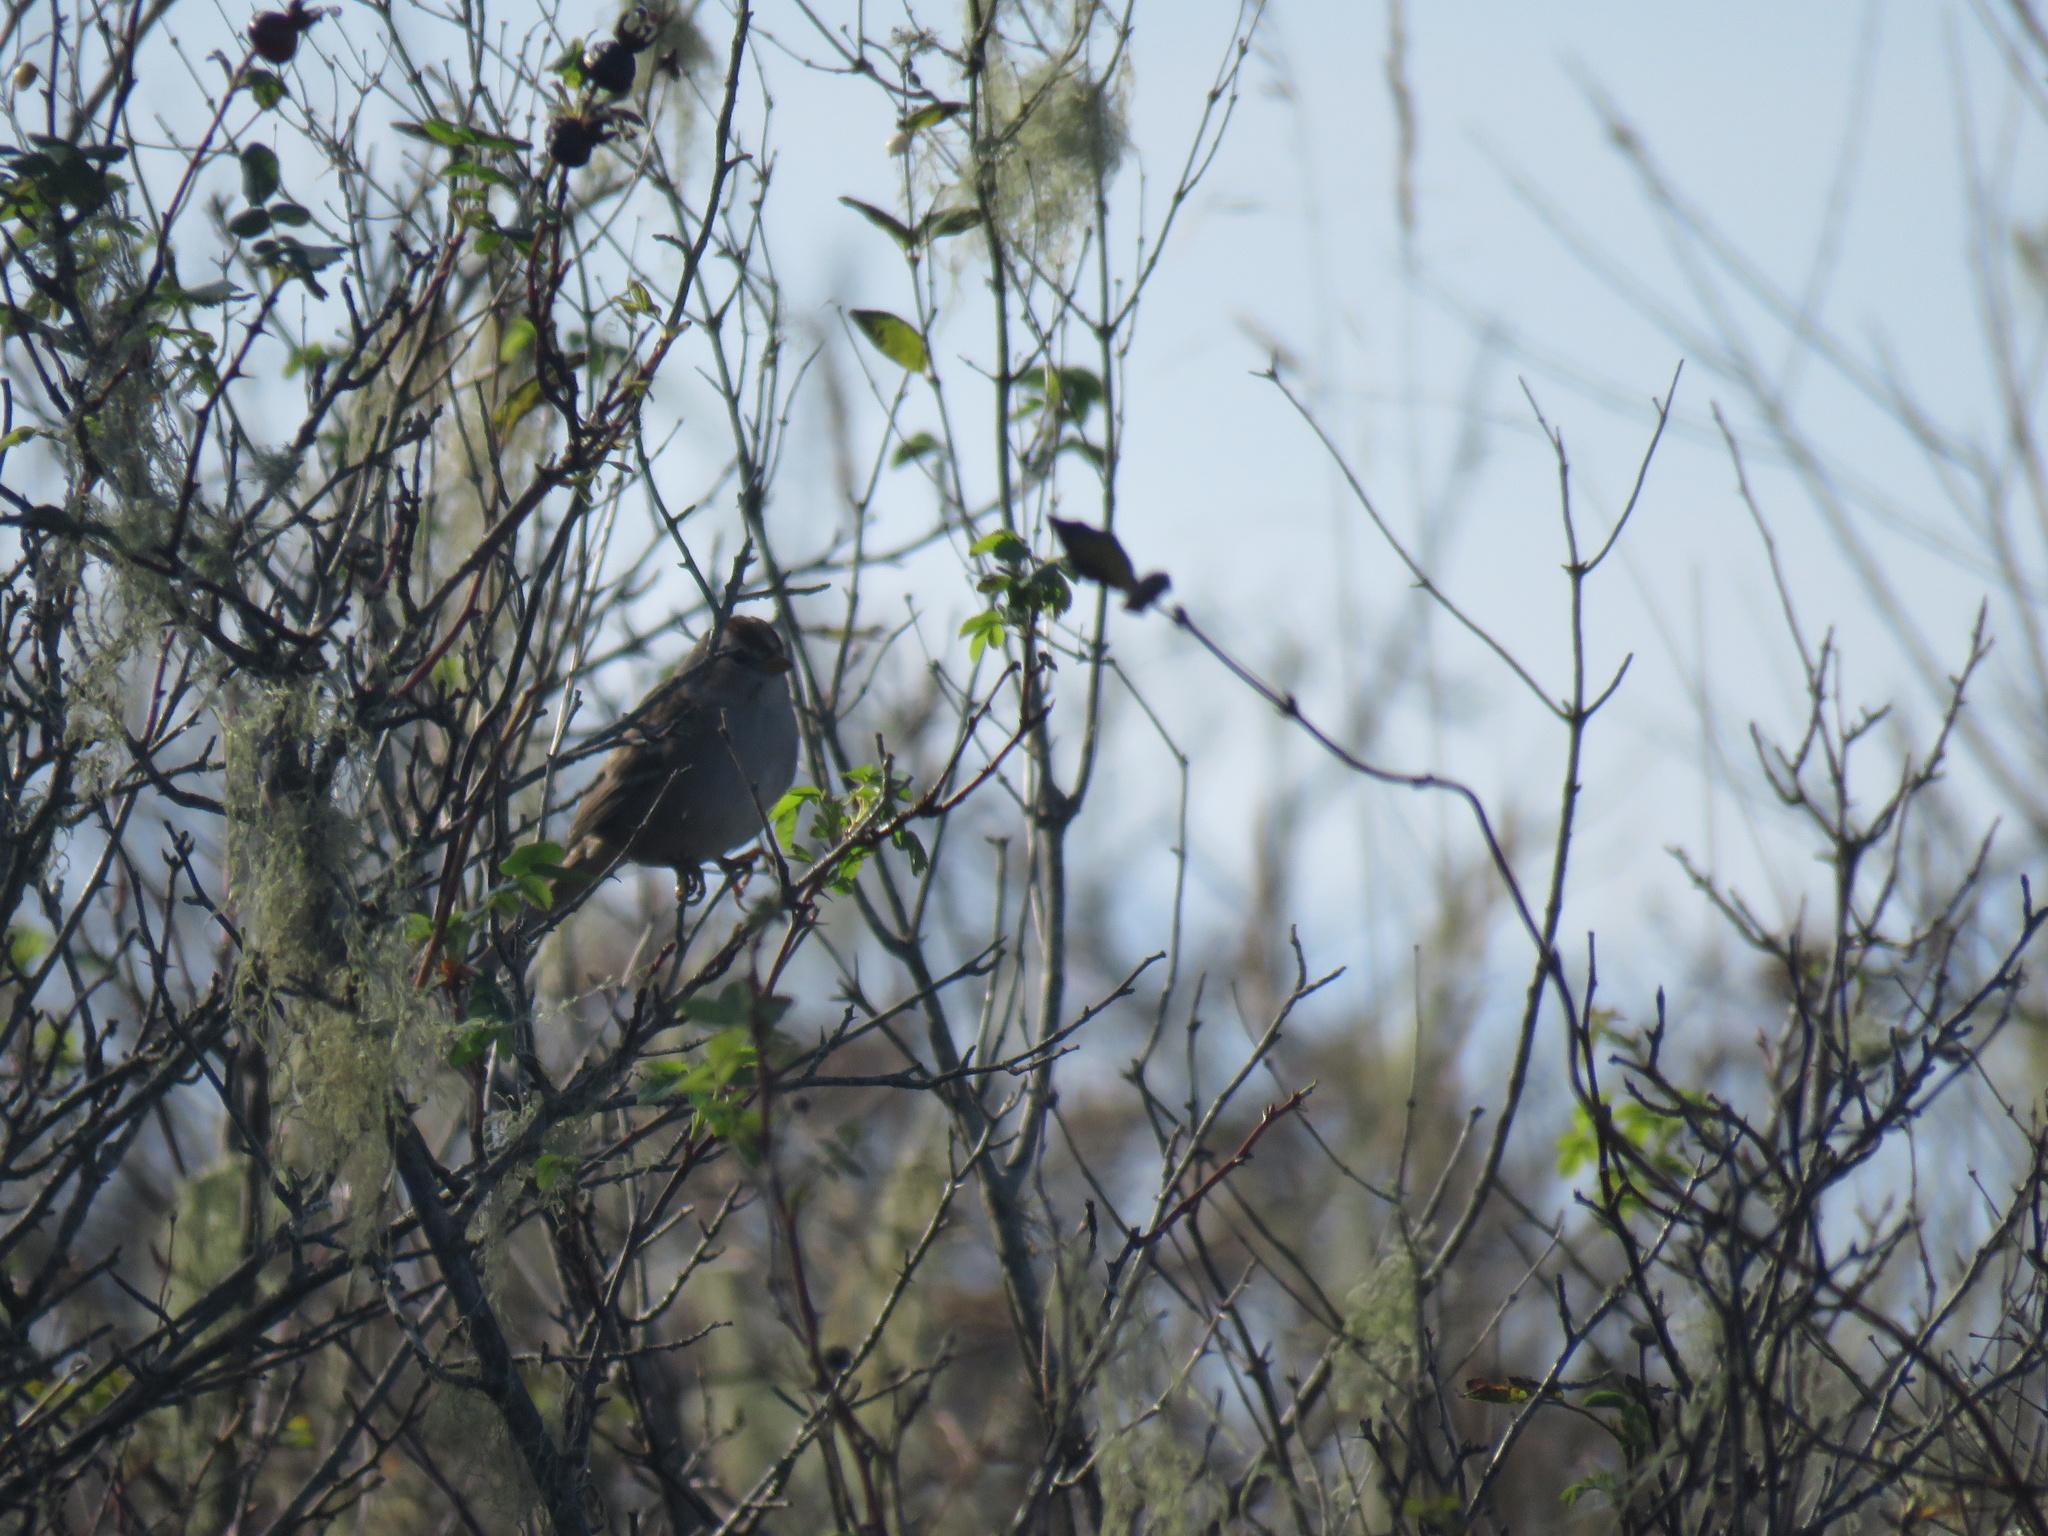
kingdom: Animalia
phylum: Chordata
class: Aves
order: Passeriformes
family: Passerellidae
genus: Zonotrichia
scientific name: Zonotrichia leucophrys
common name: White-crowned sparrow
